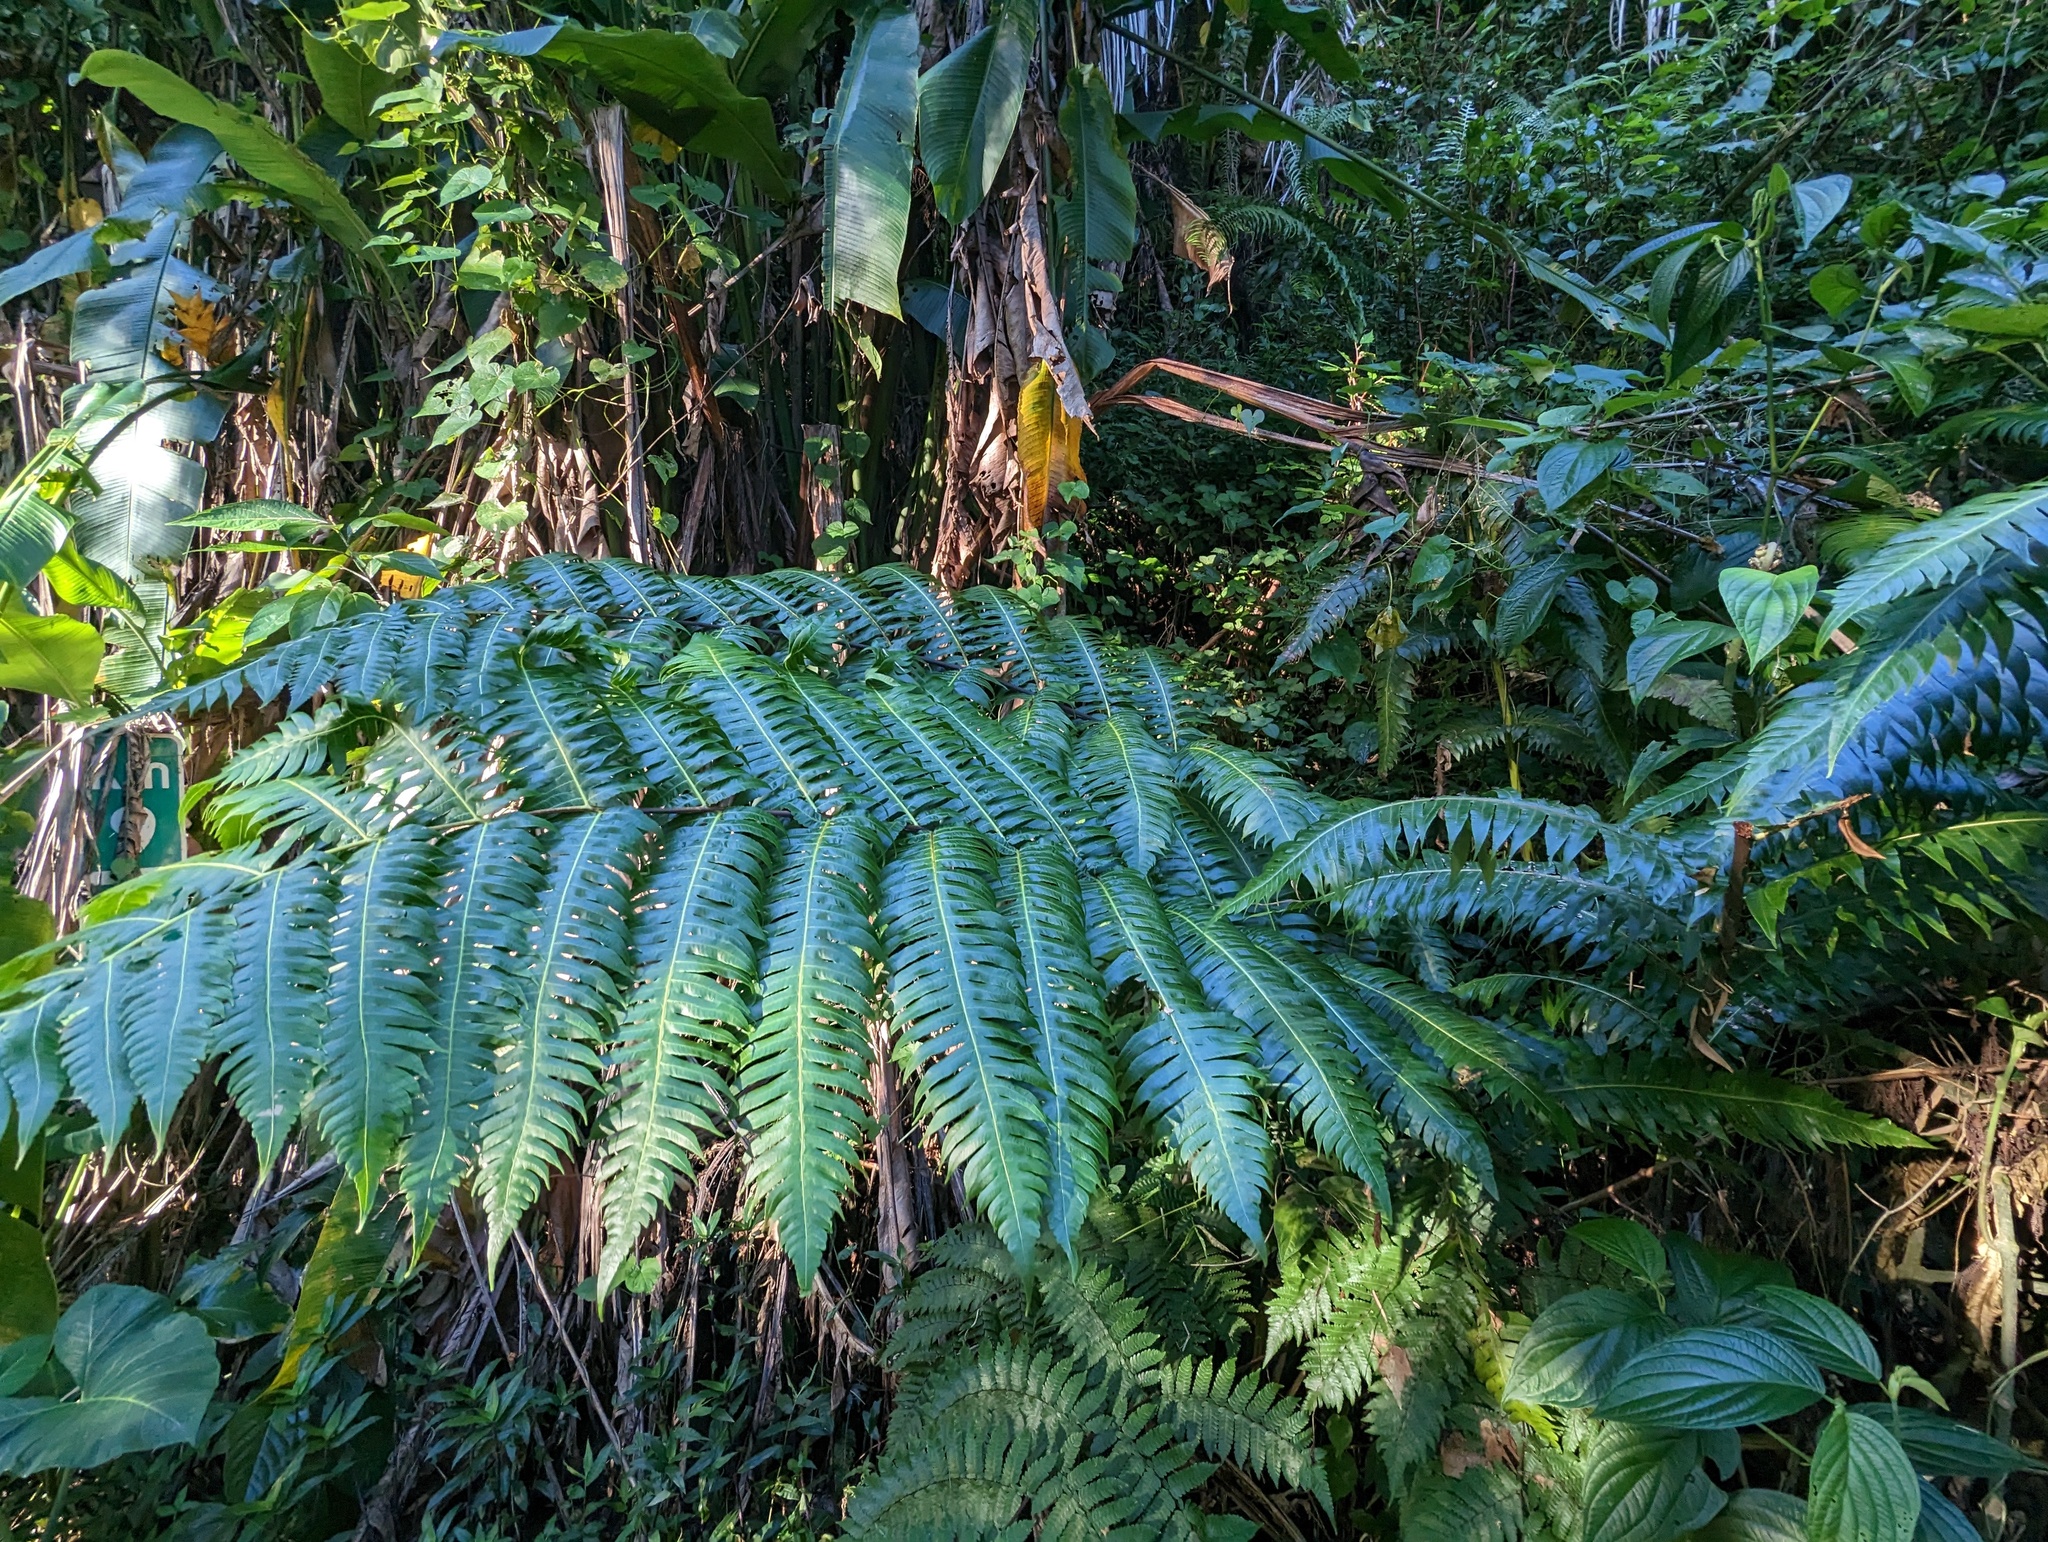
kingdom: Plantae
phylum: Tracheophyta
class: Polypodiopsida
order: Cyatheales
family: Cyatheaceae
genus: Cyathea
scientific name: Cyathea horrida
